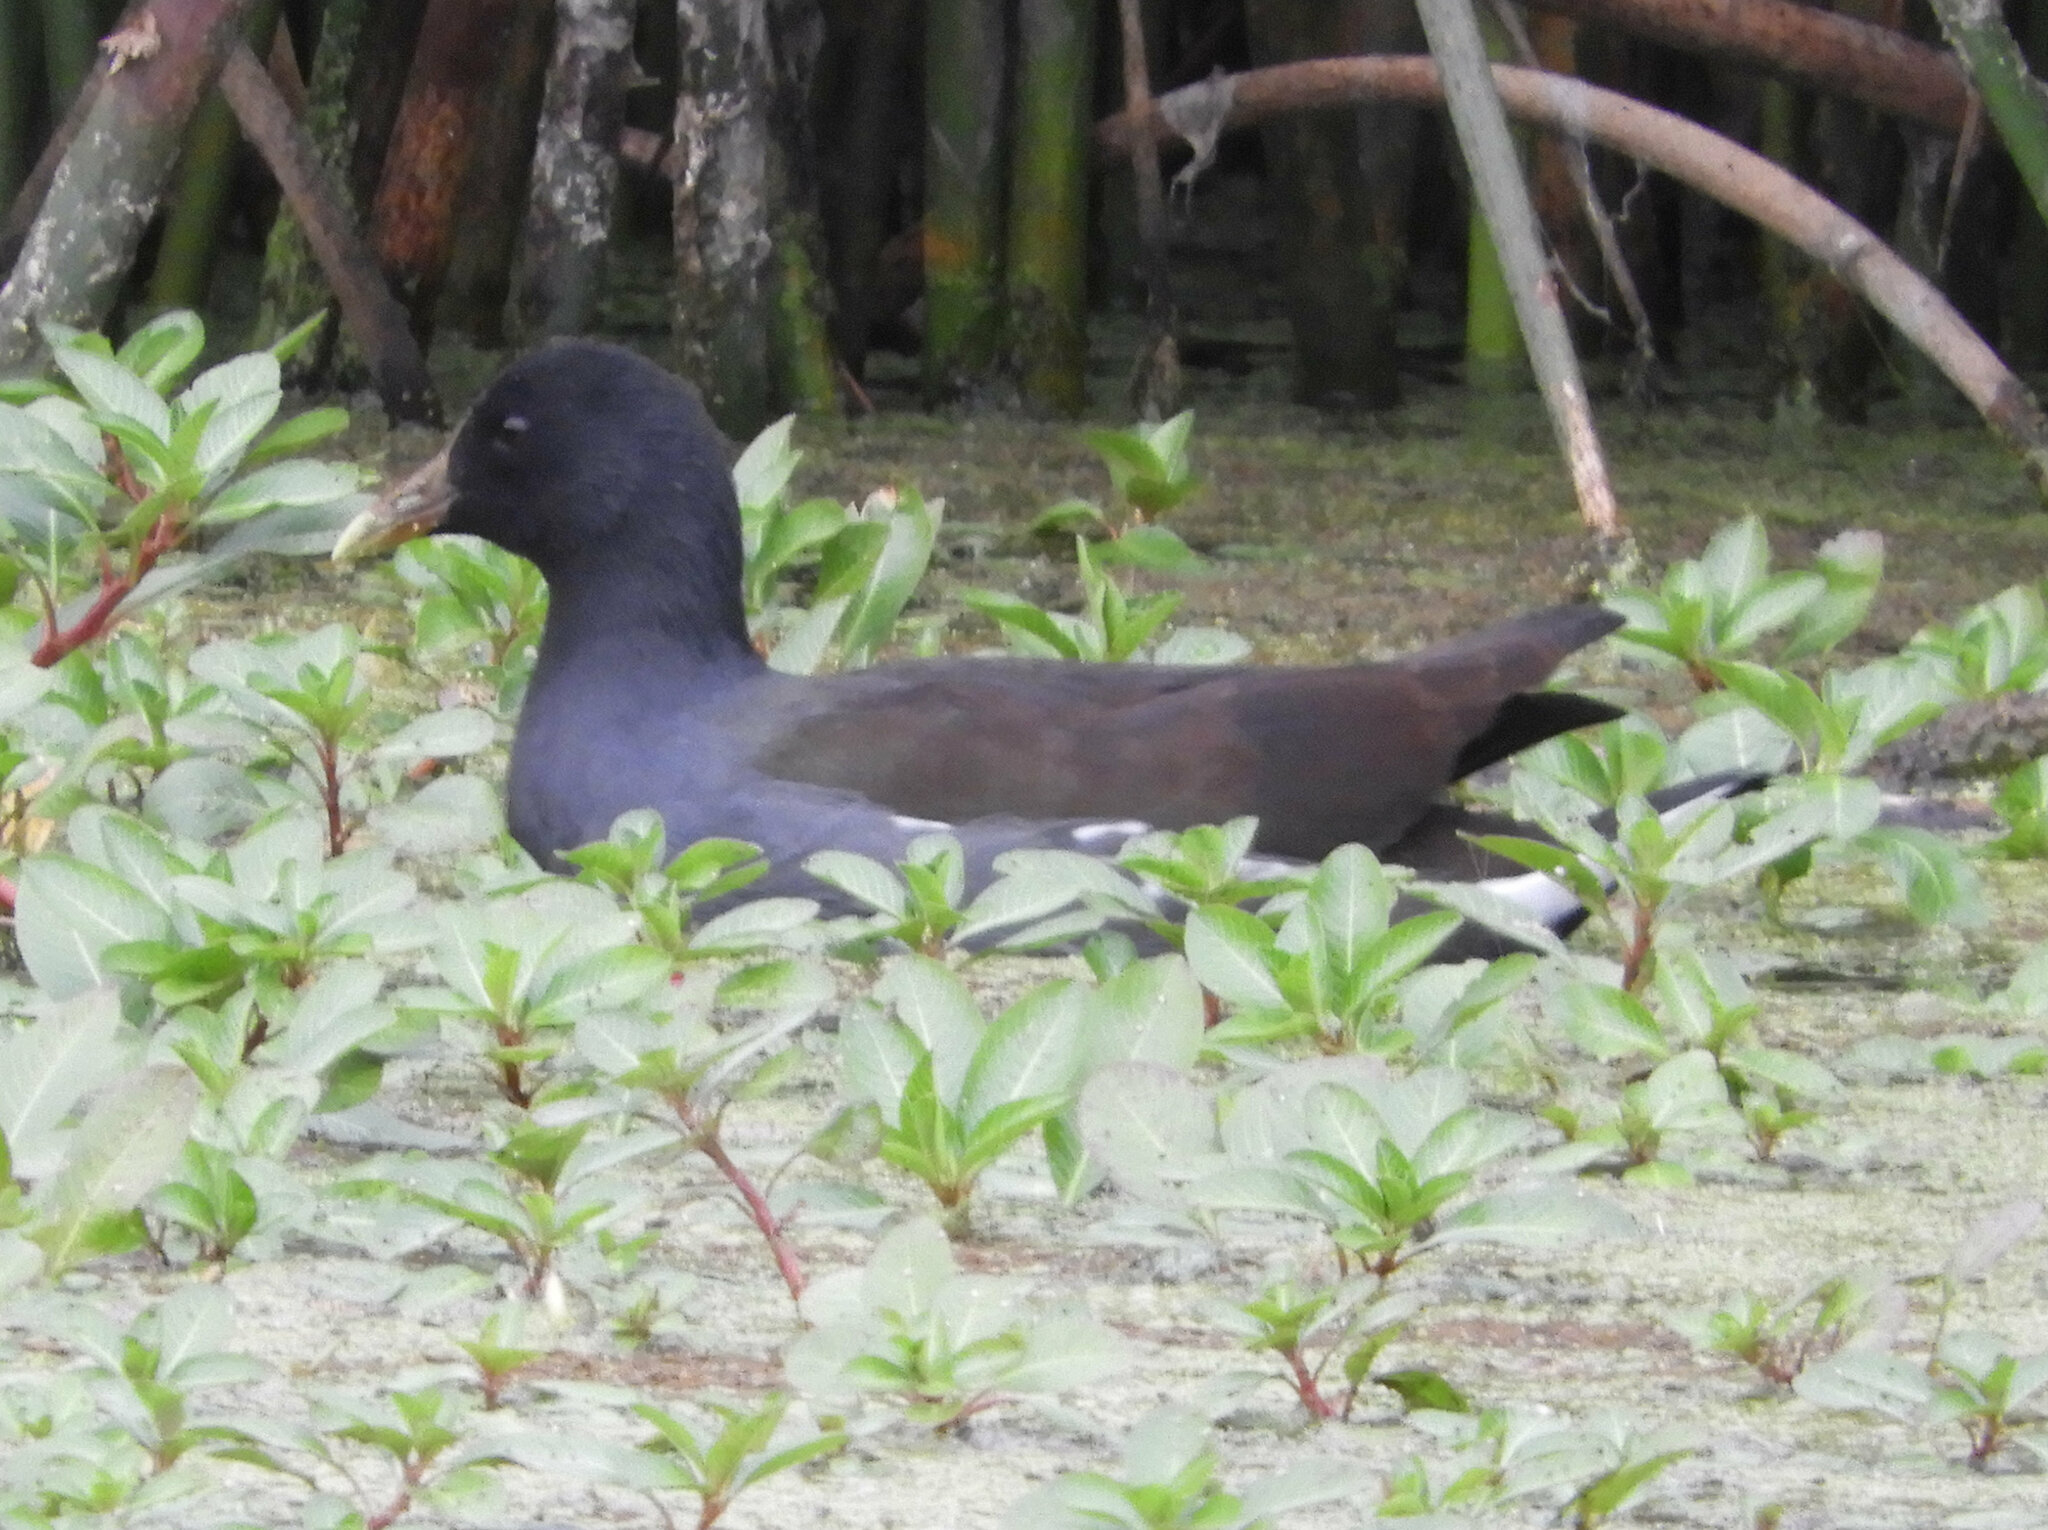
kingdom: Animalia
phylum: Chordata
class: Aves
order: Gruiformes
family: Rallidae
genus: Gallinula
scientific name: Gallinula chloropus
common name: Common moorhen
